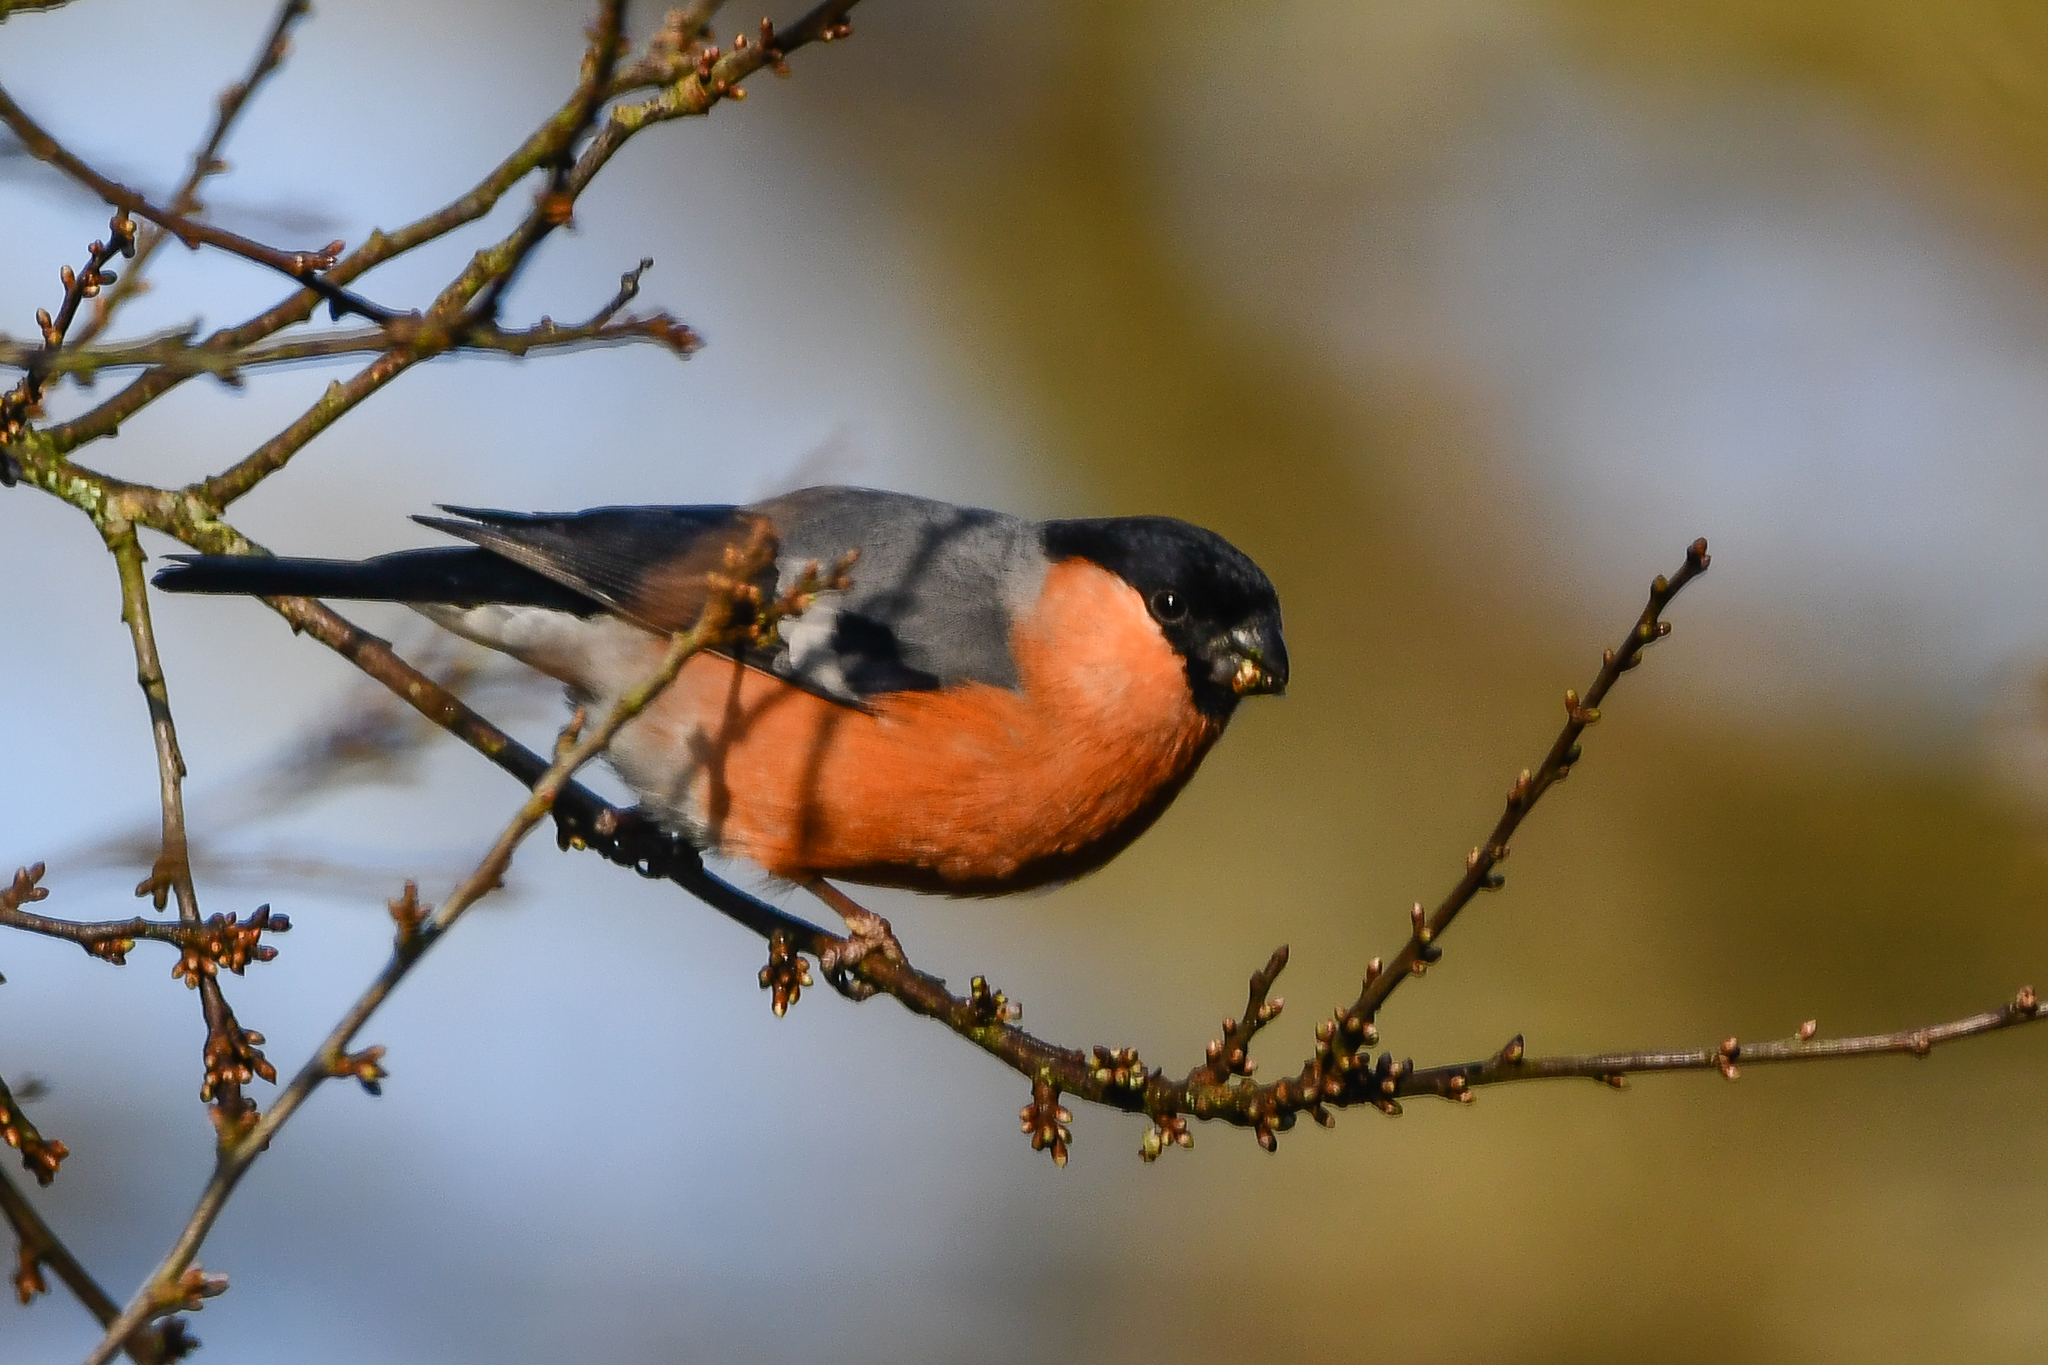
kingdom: Animalia
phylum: Chordata
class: Aves
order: Passeriformes
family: Fringillidae
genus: Pyrrhula
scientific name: Pyrrhula pyrrhula
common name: Eurasian bullfinch
